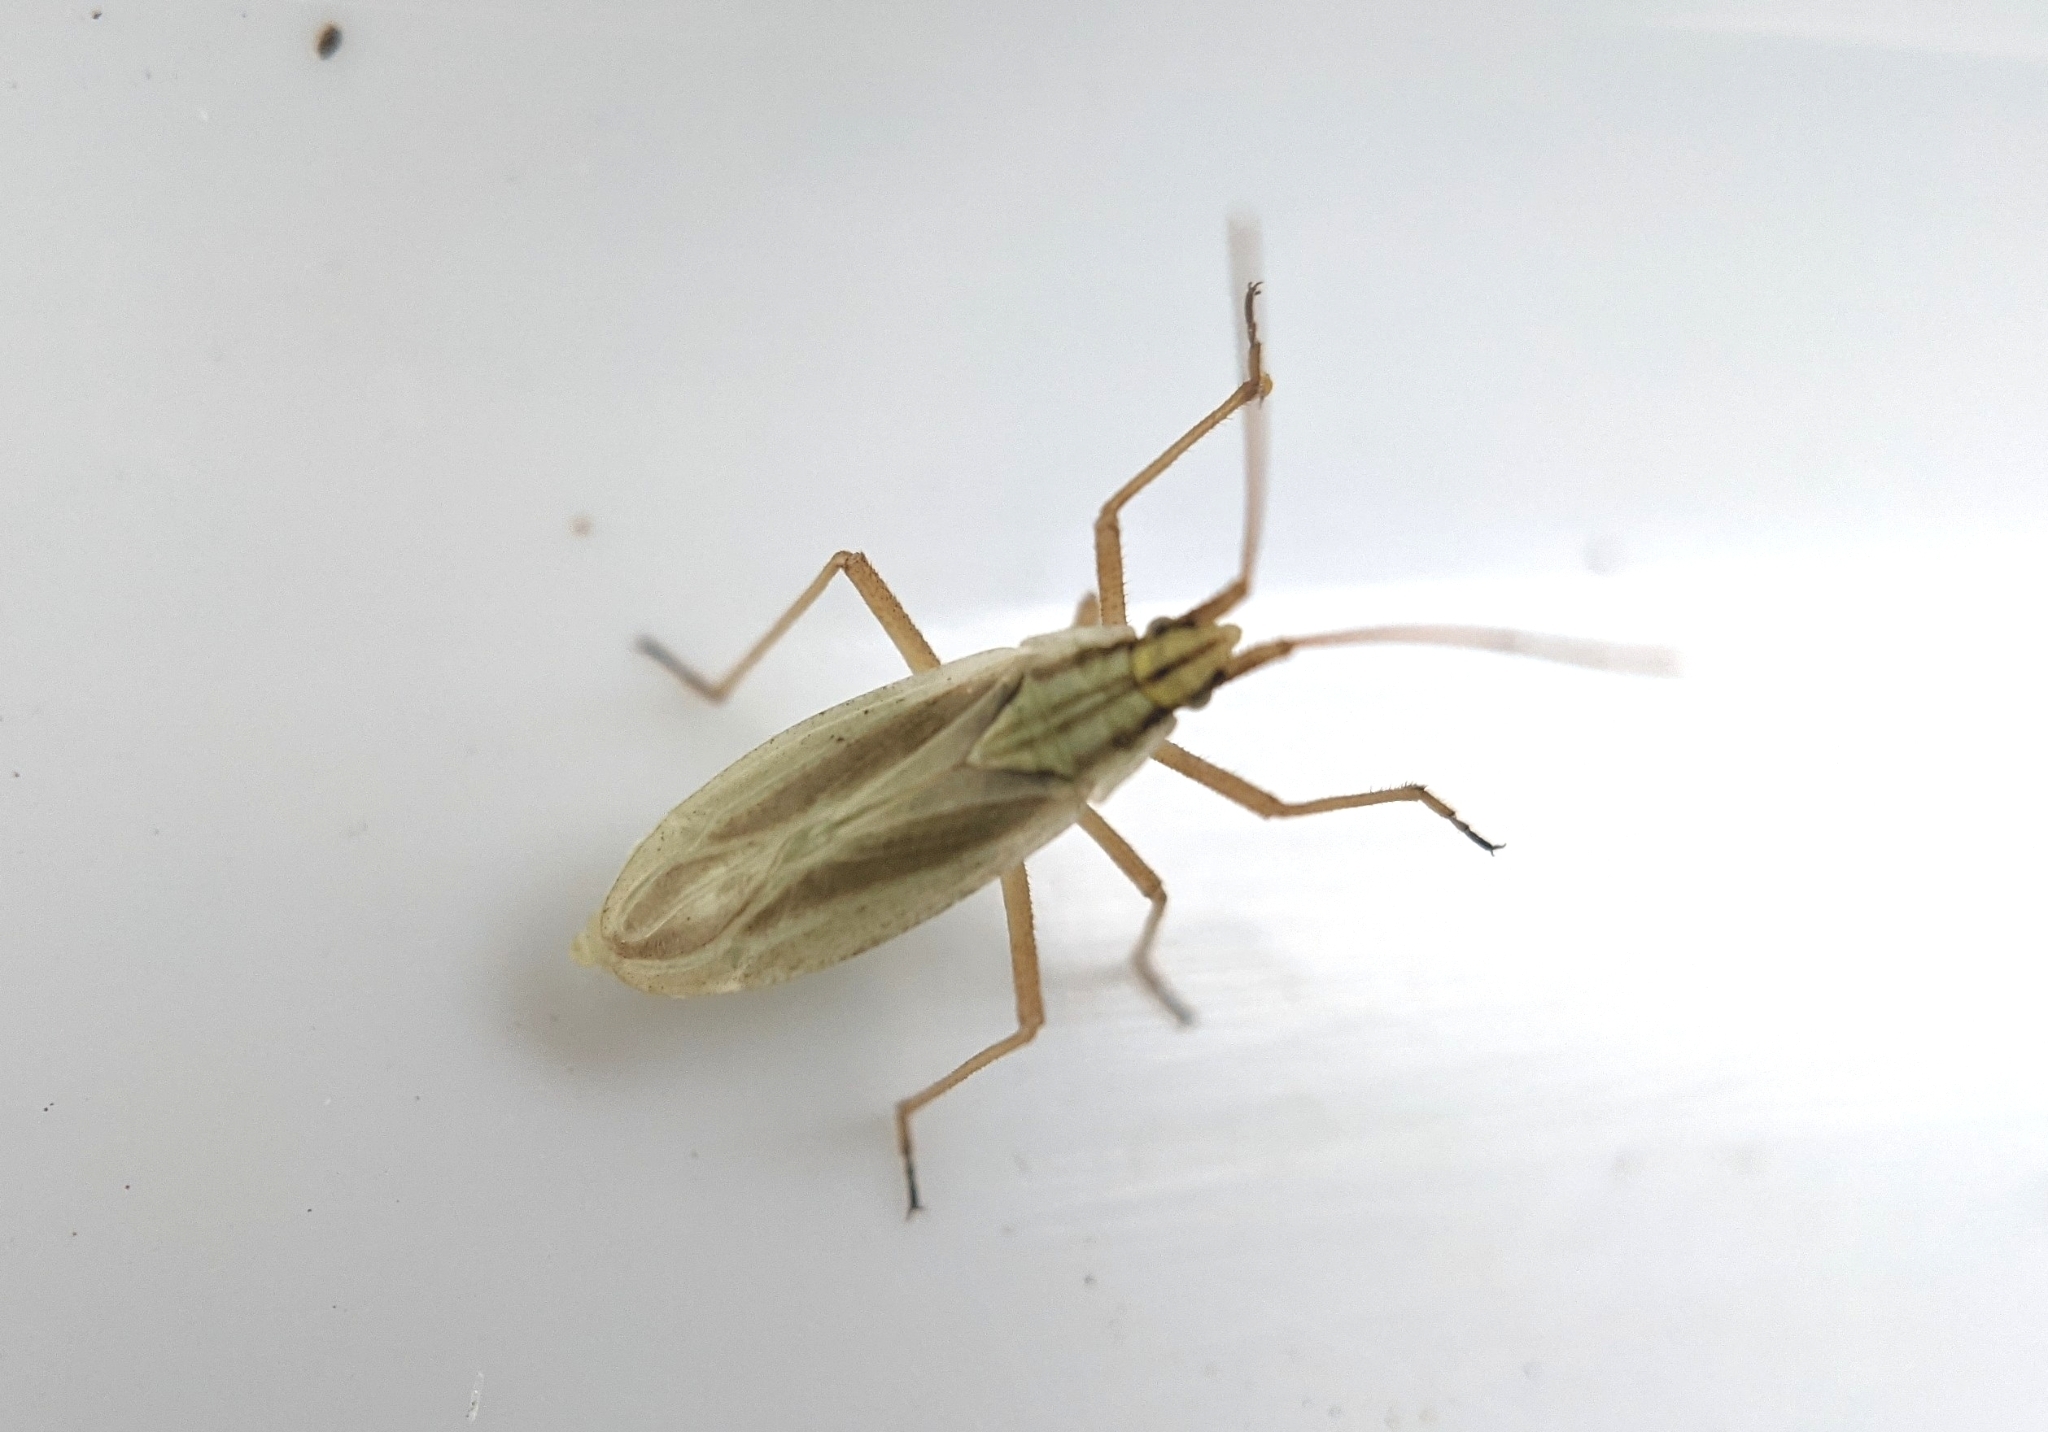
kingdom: Animalia
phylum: Arthropoda
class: Insecta
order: Hemiptera
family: Miridae
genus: Acetropis
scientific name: Acetropis gimmerthalii
